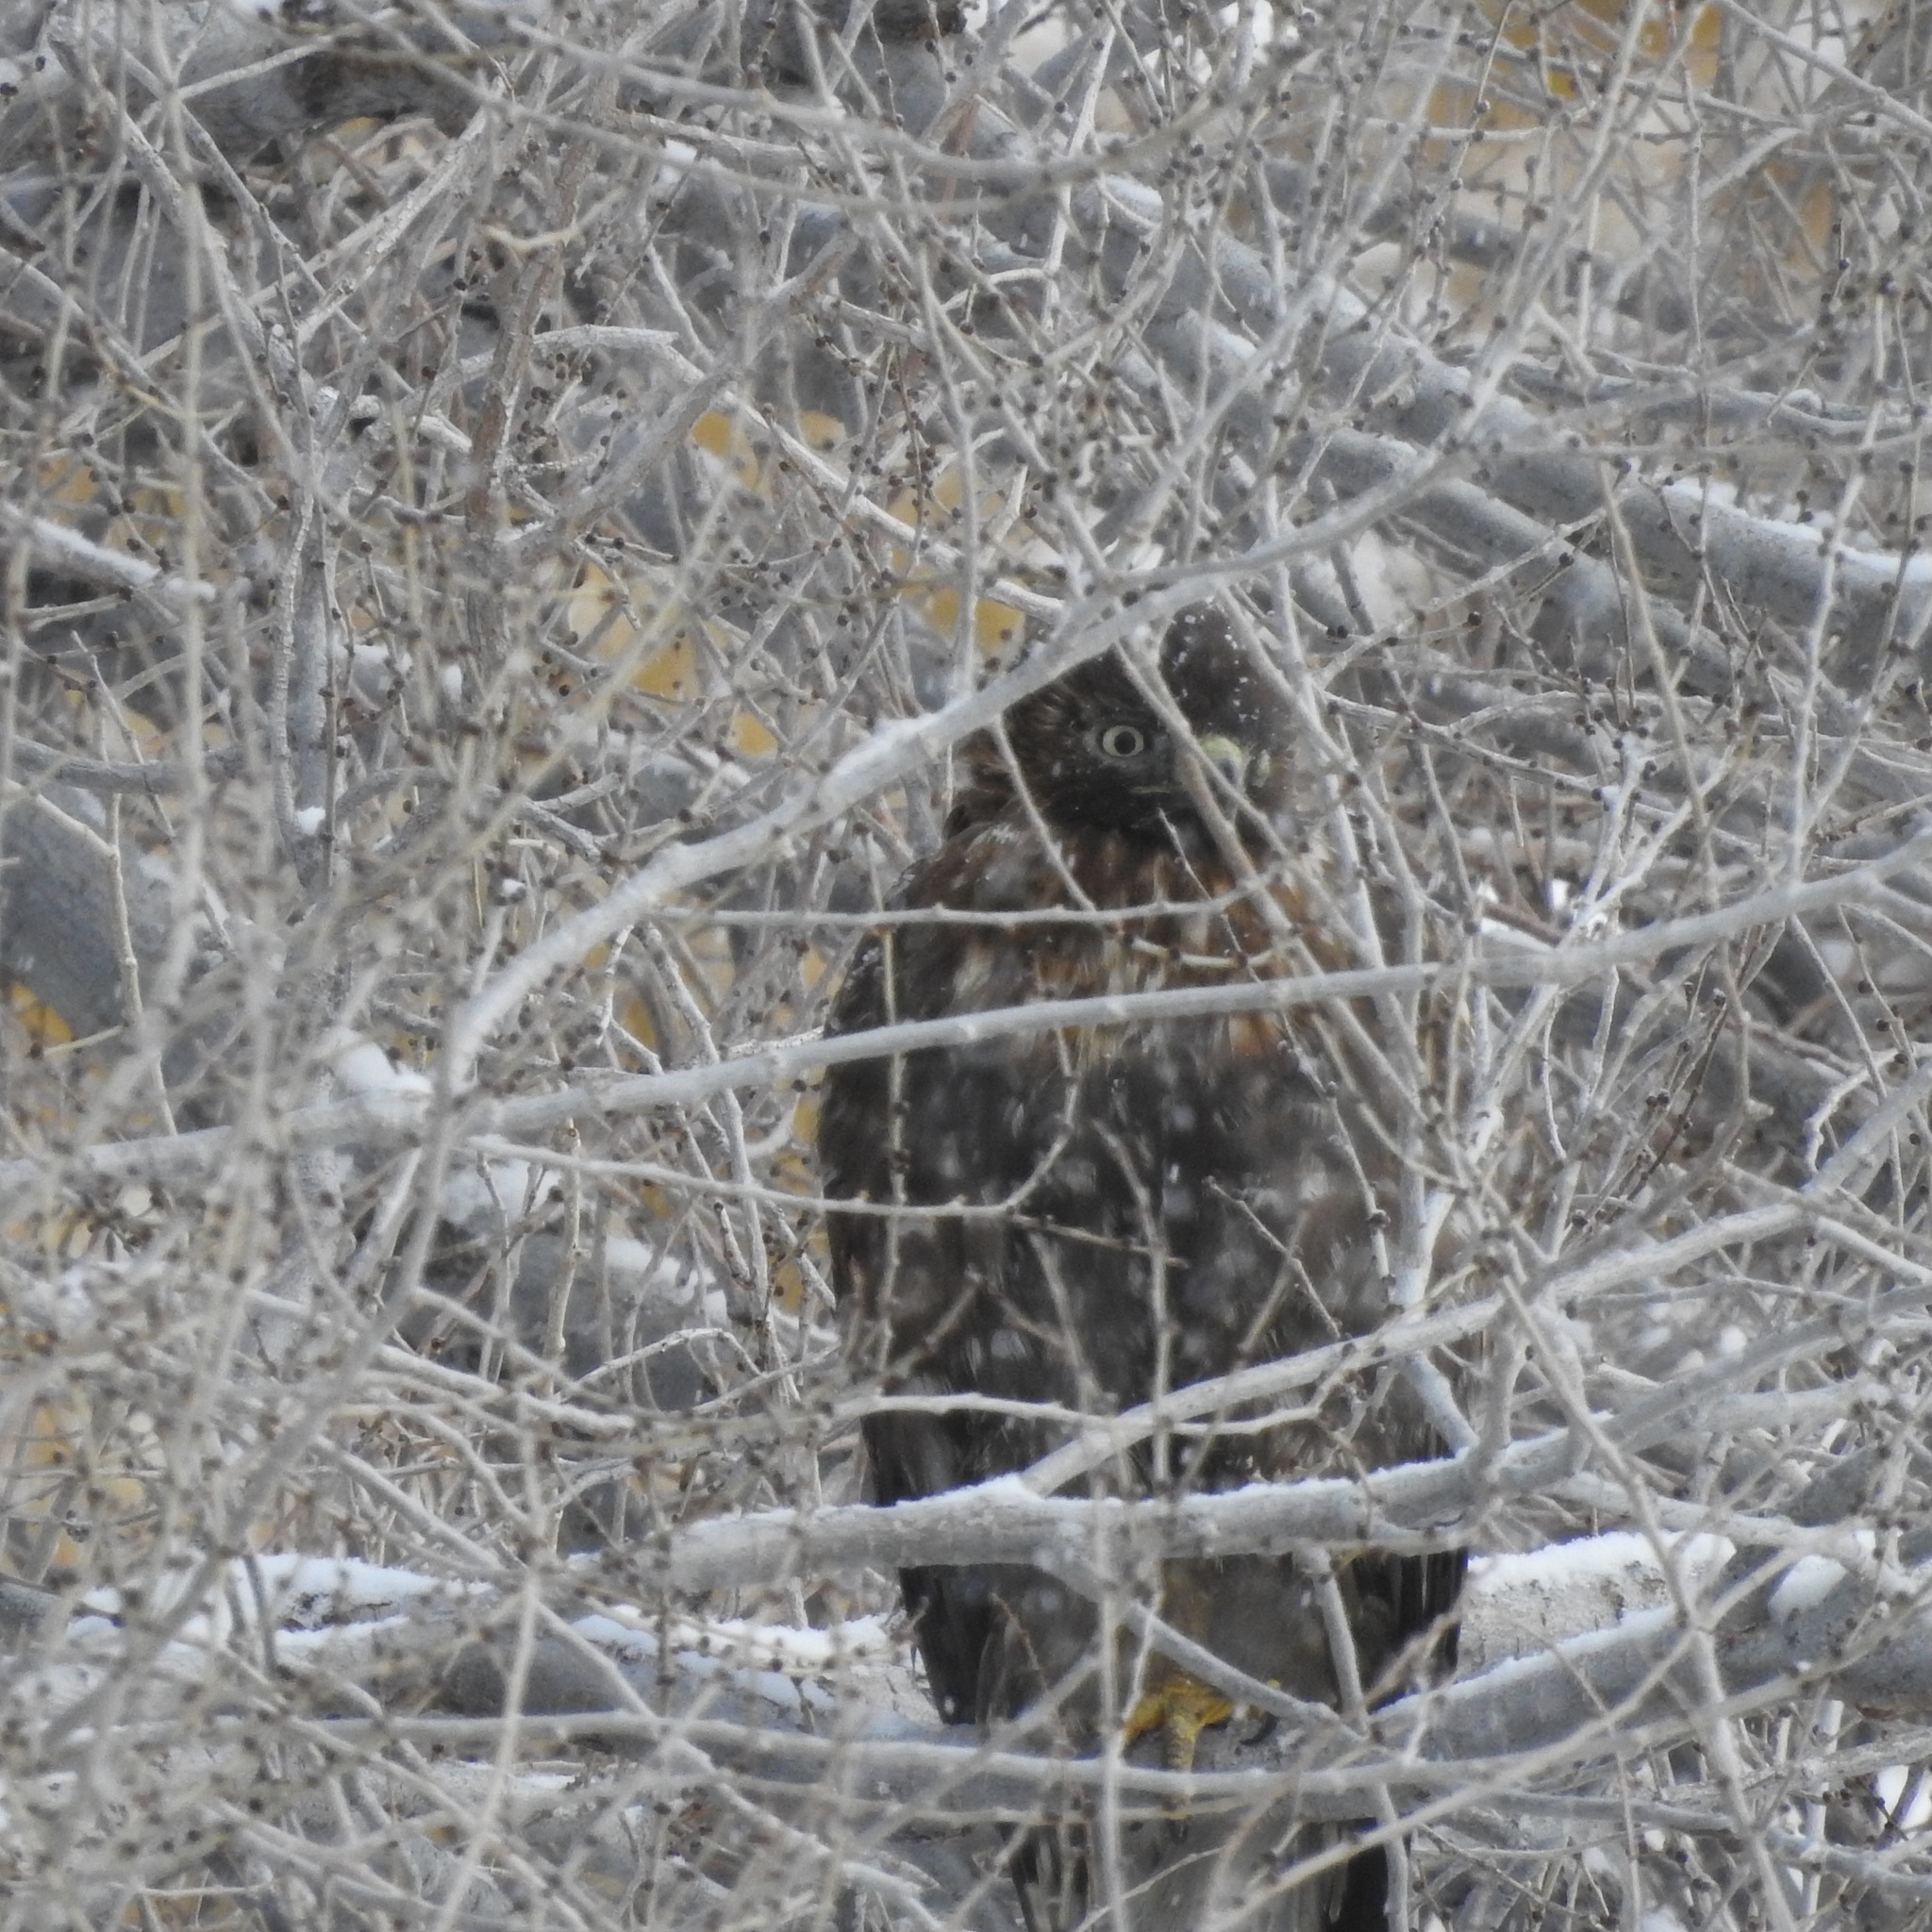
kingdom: Animalia
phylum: Chordata
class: Aves
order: Accipitriformes
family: Accipitridae
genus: Buteo
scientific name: Buteo jamaicensis
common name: Red-tailed hawk
